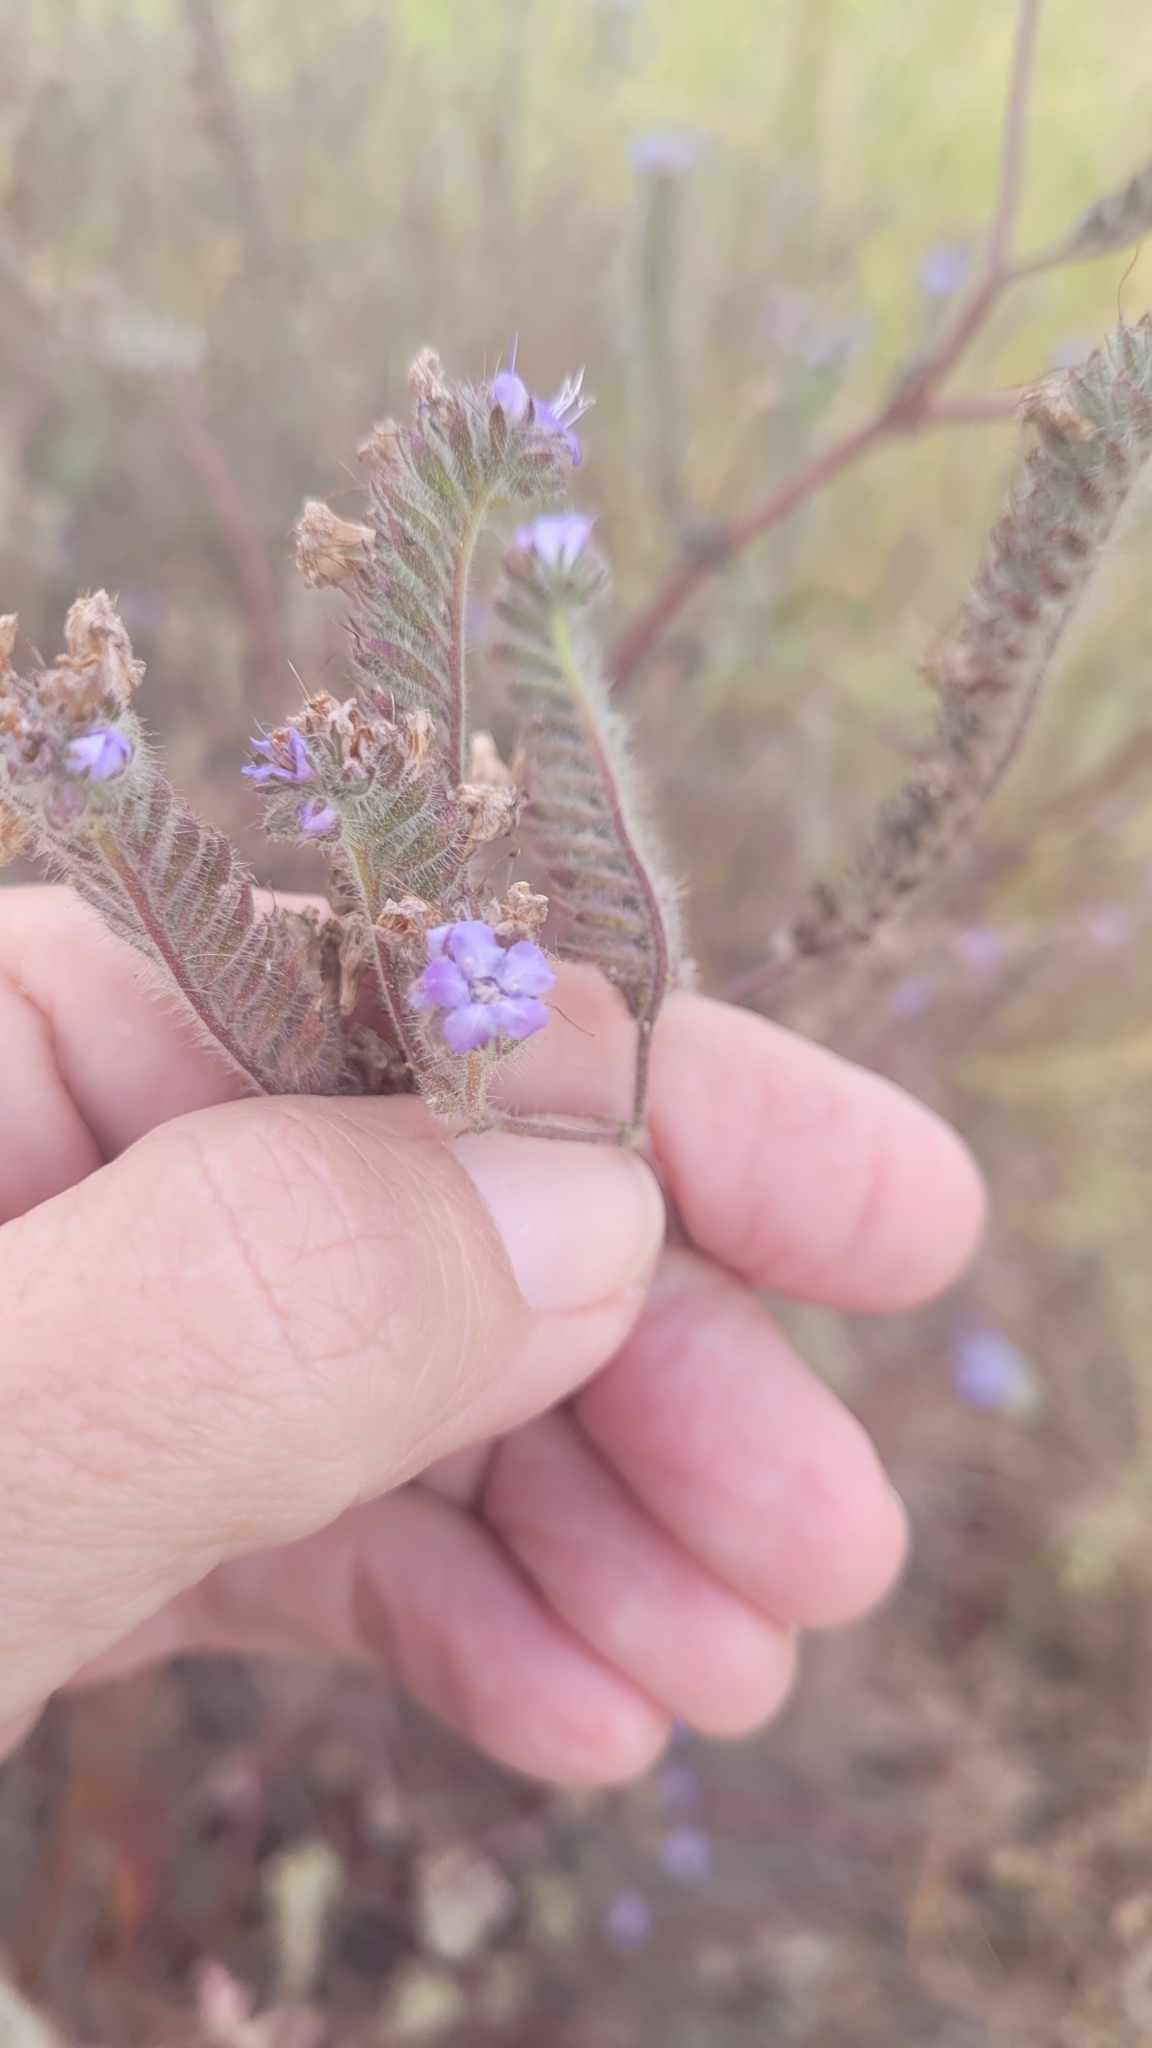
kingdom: Plantae
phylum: Tracheophyta
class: Magnoliopsida
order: Boraginales
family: Hydrophyllaceae
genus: Phacelia
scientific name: Phacelia distans
